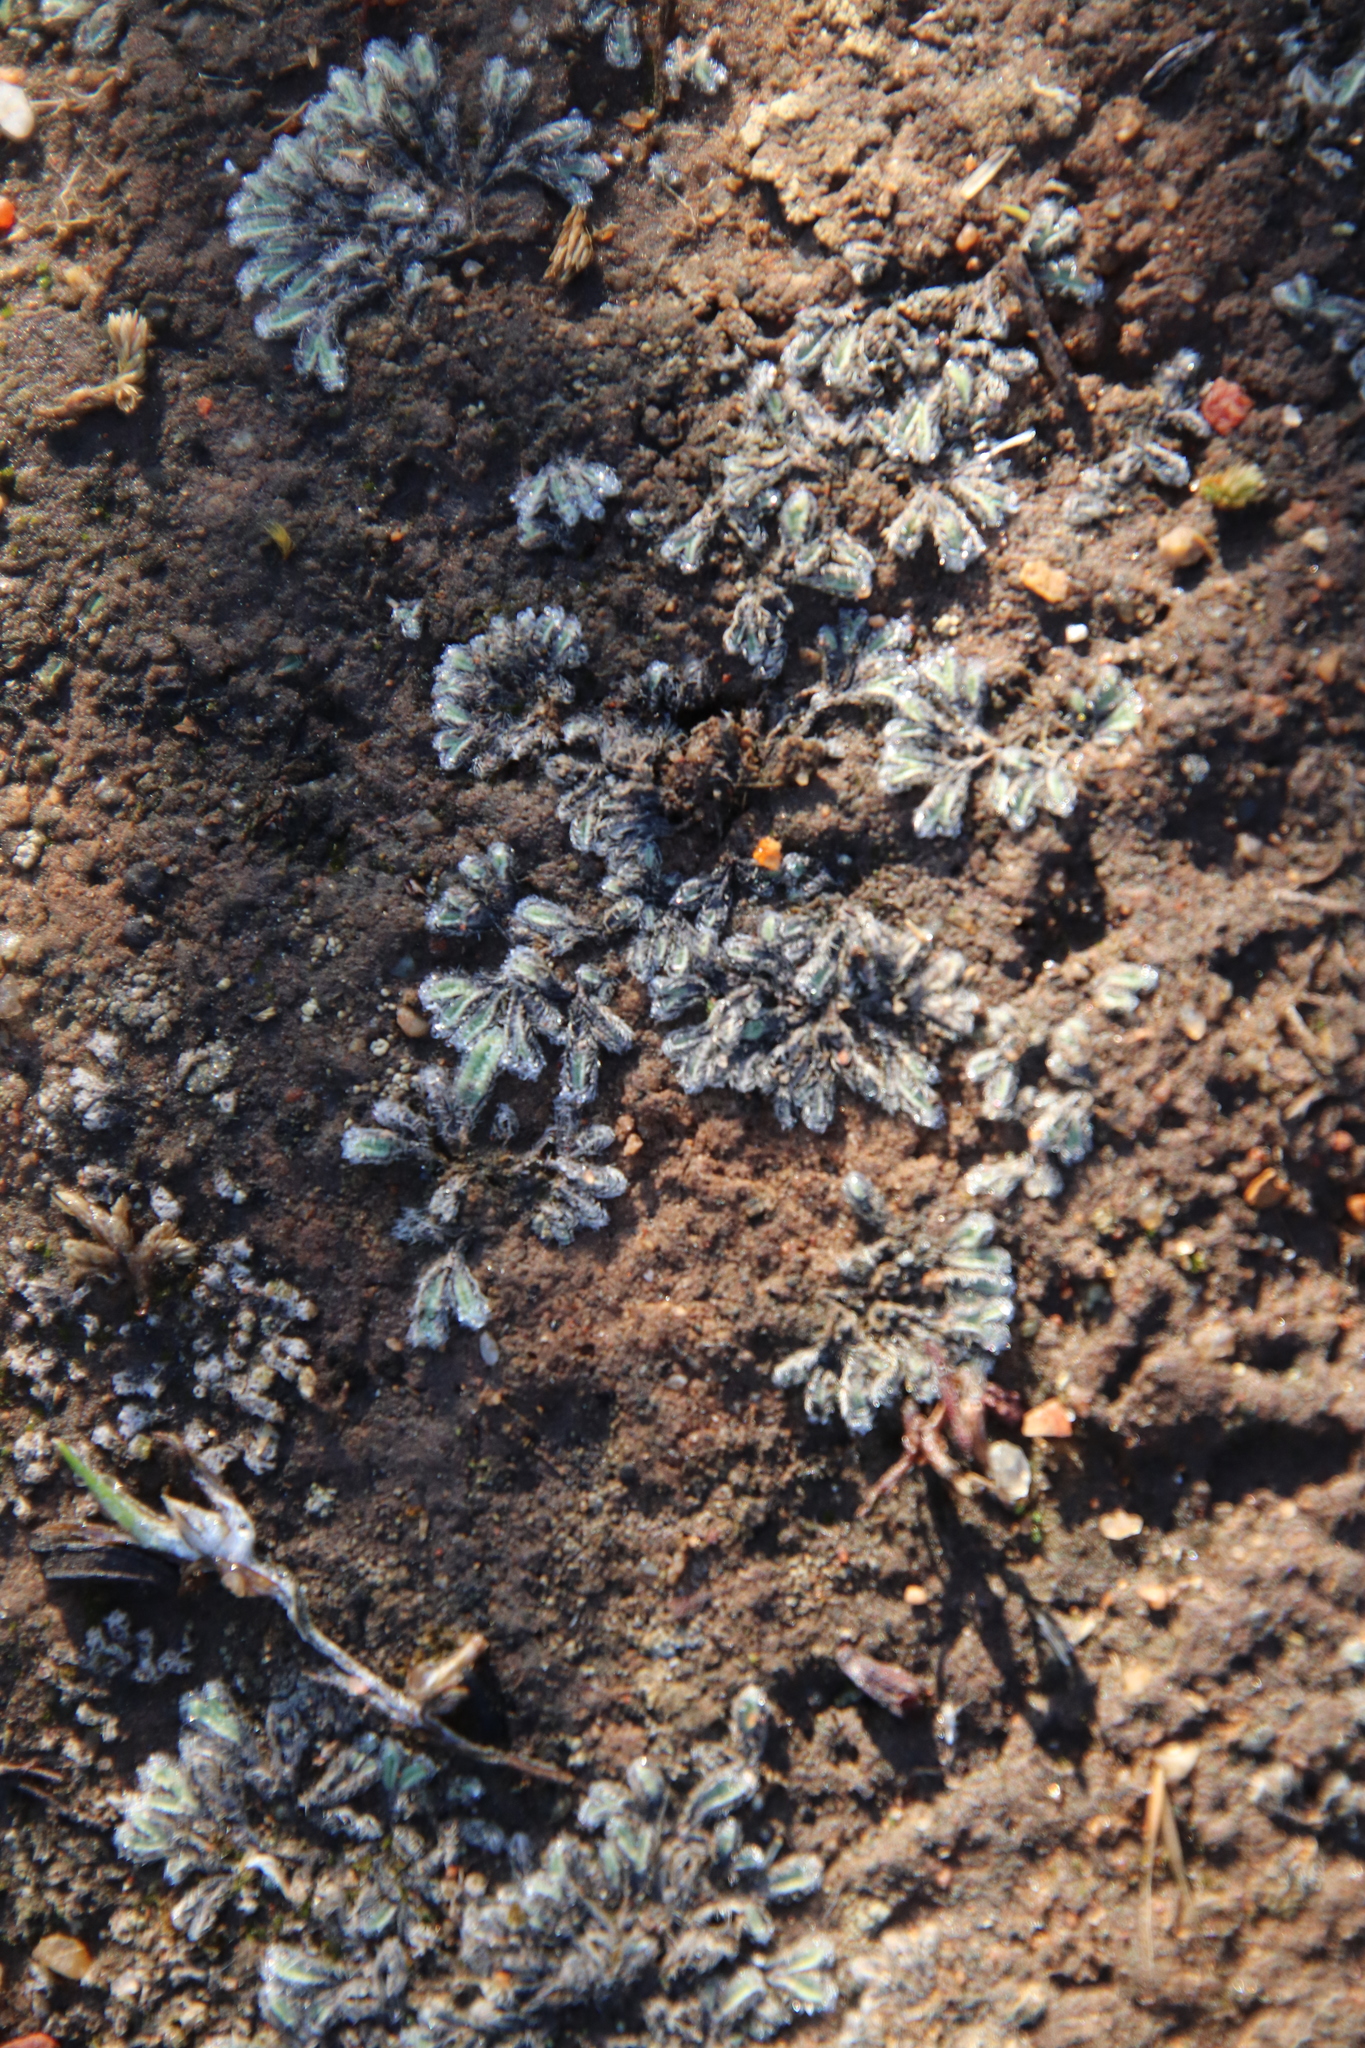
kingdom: Plantae
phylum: Marchantiophyta
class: Marchantiopsida
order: Marchantiales
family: Ricciaceae
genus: Riccia
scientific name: Riccia trichocarpa
